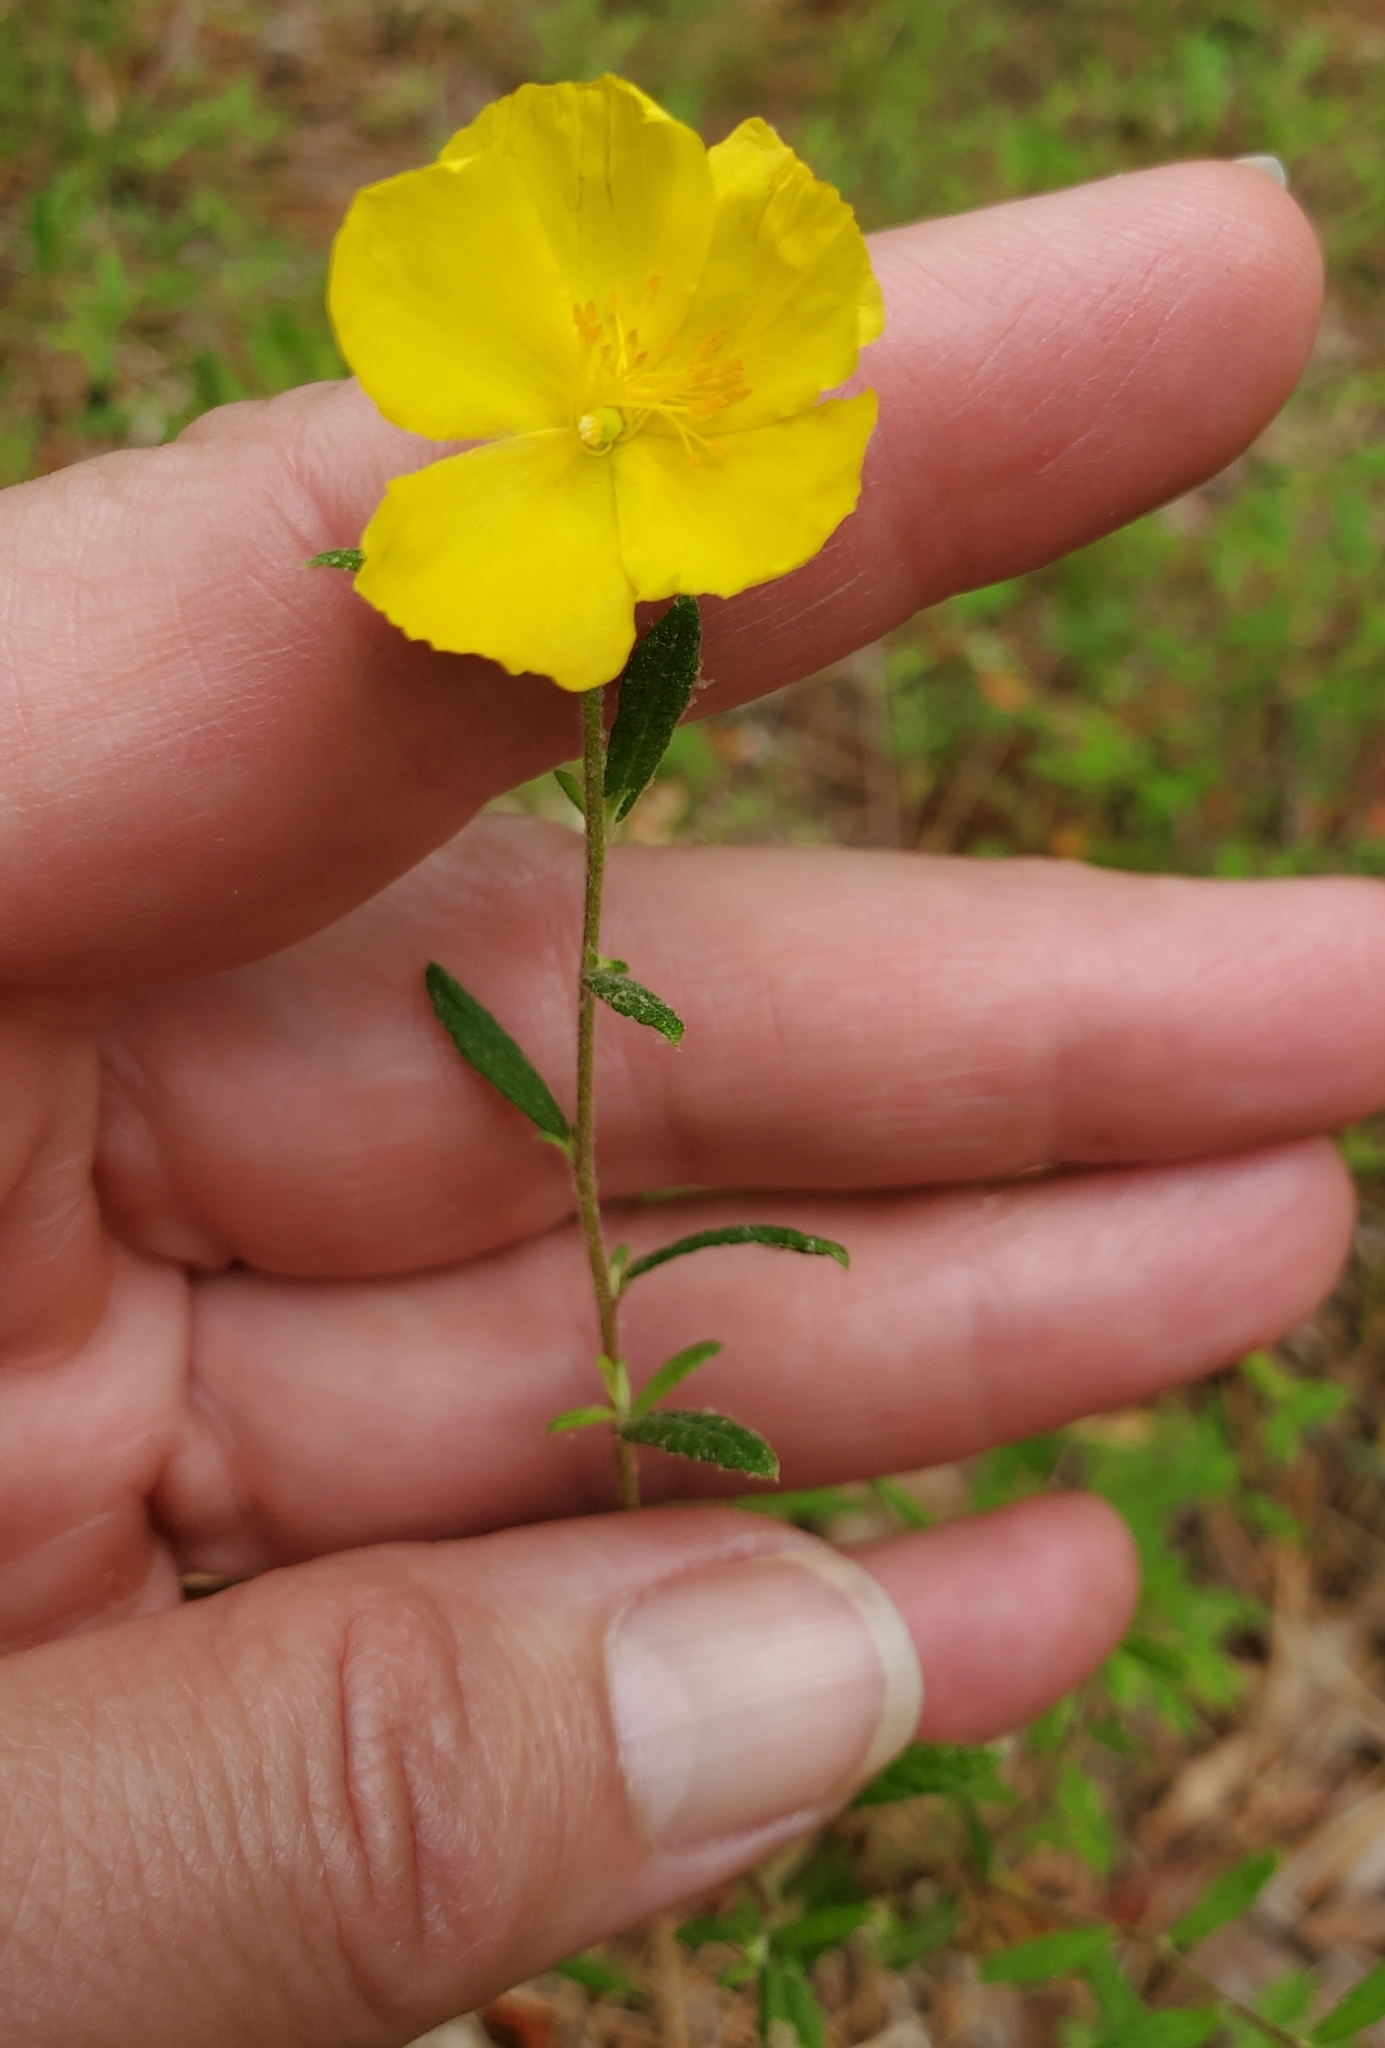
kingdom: Plantae
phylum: Tracheophyta
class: Magnoliopsida
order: Malvales
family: Cistaceae
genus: Crocanthemum
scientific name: Crocanthemum canadense
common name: Canada frostweed
